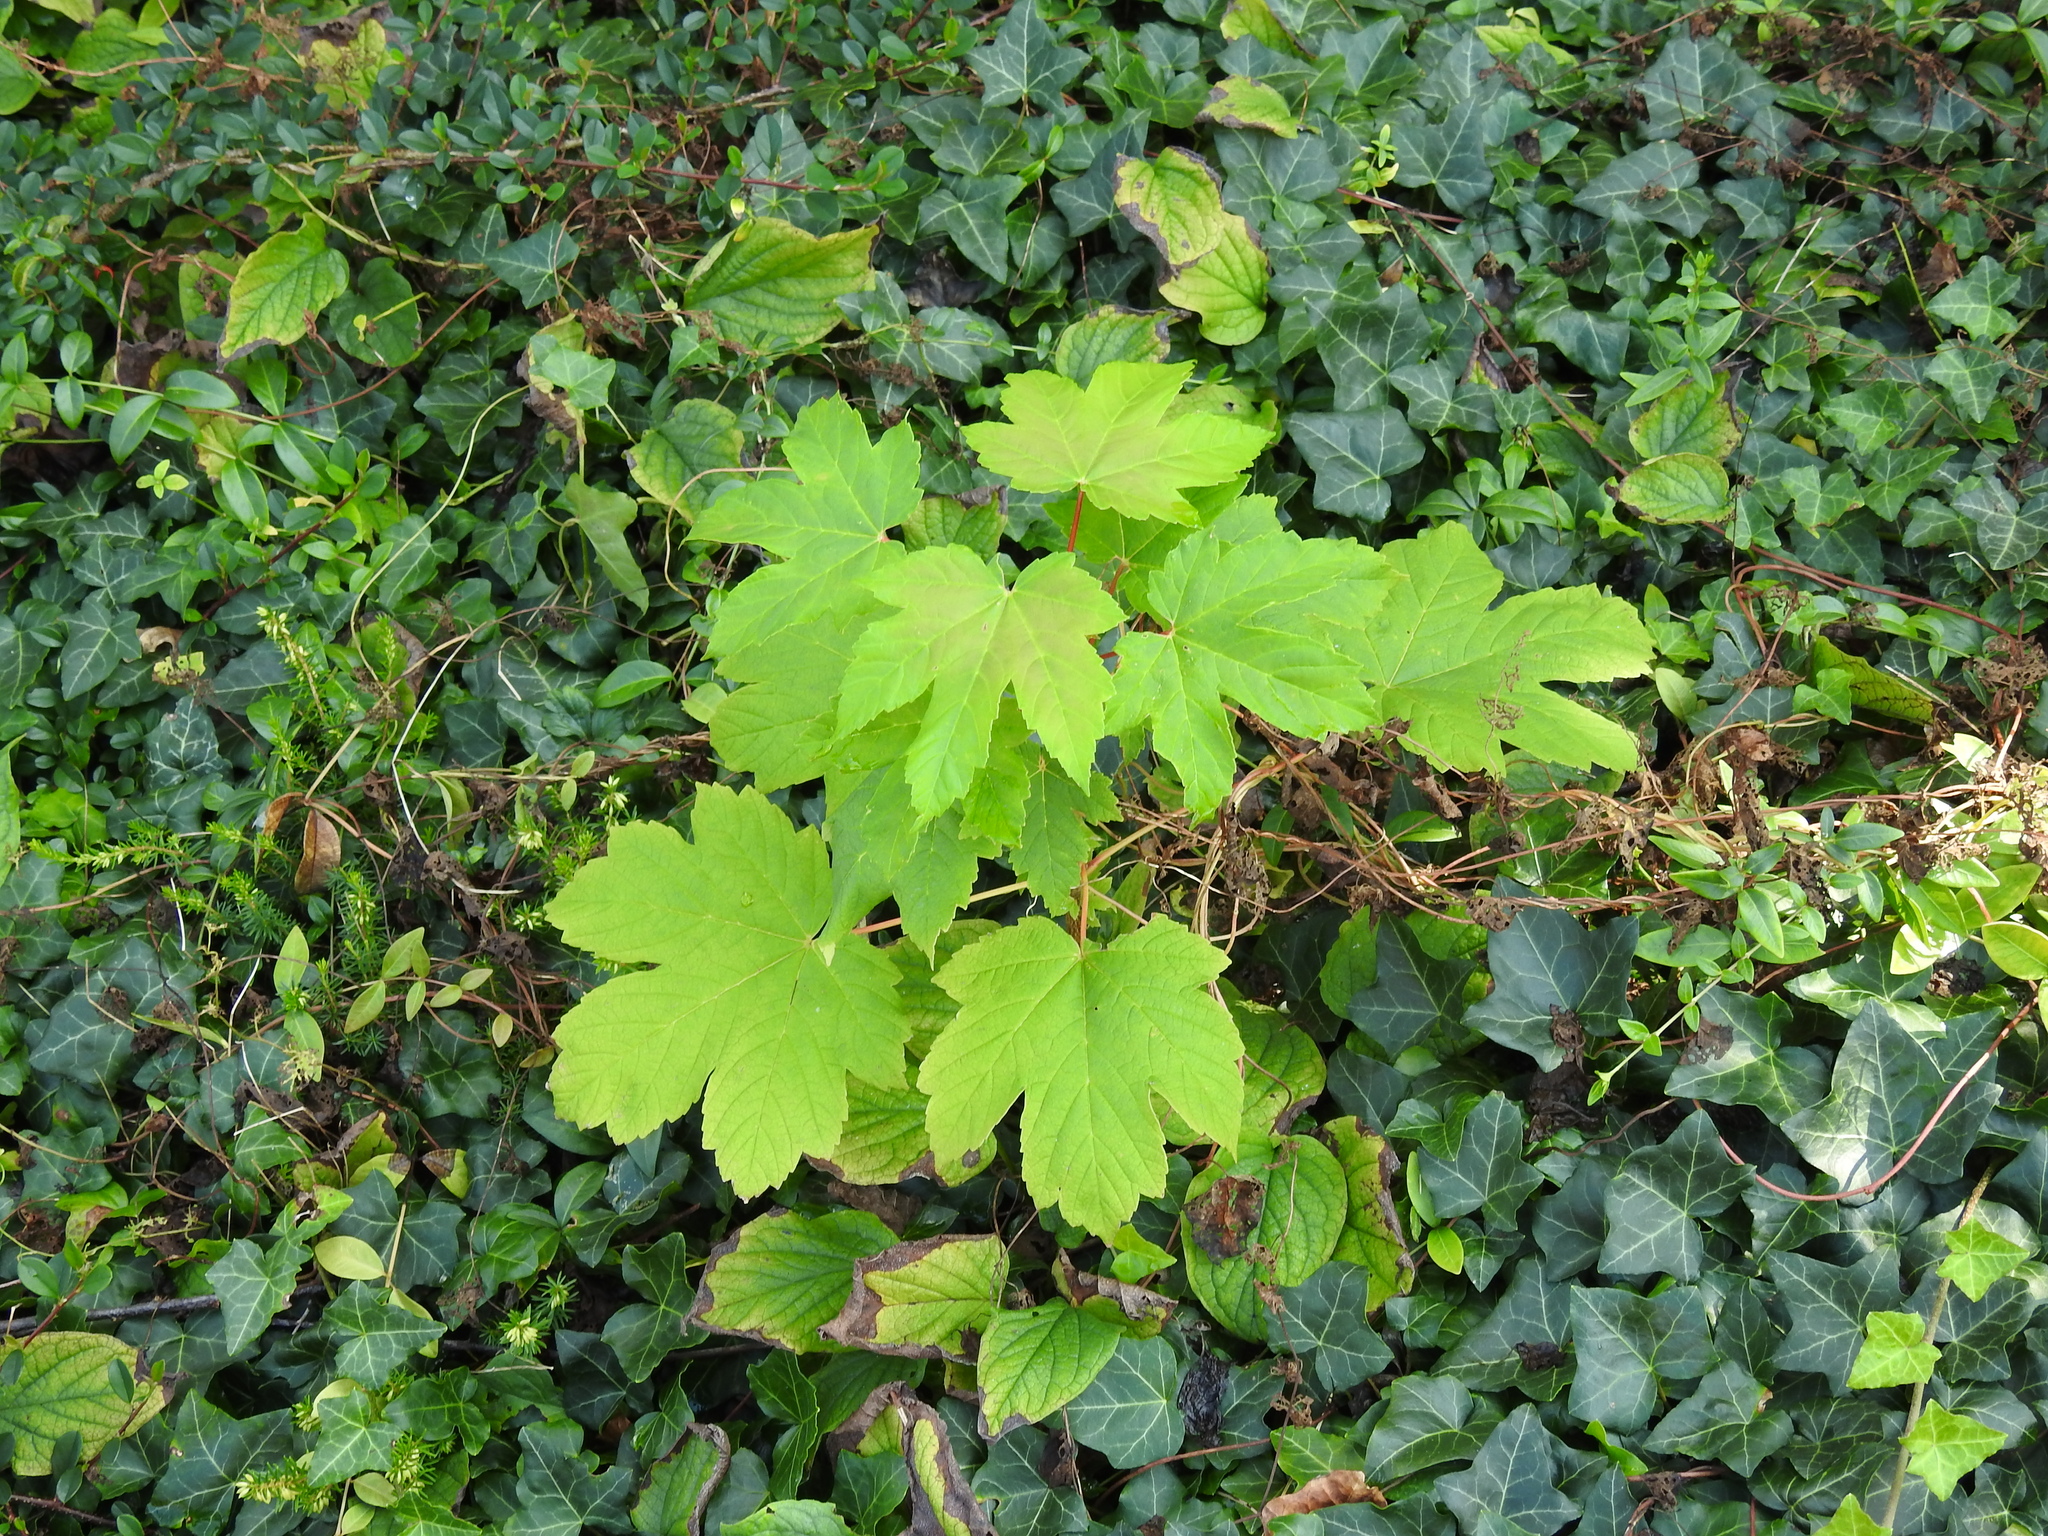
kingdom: Plantae
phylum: Tracheophyta
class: Magnoliopsida
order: Sapindales
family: Sapindaceae
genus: Acer
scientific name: Acer pseudoplatanus
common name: Sycamore
